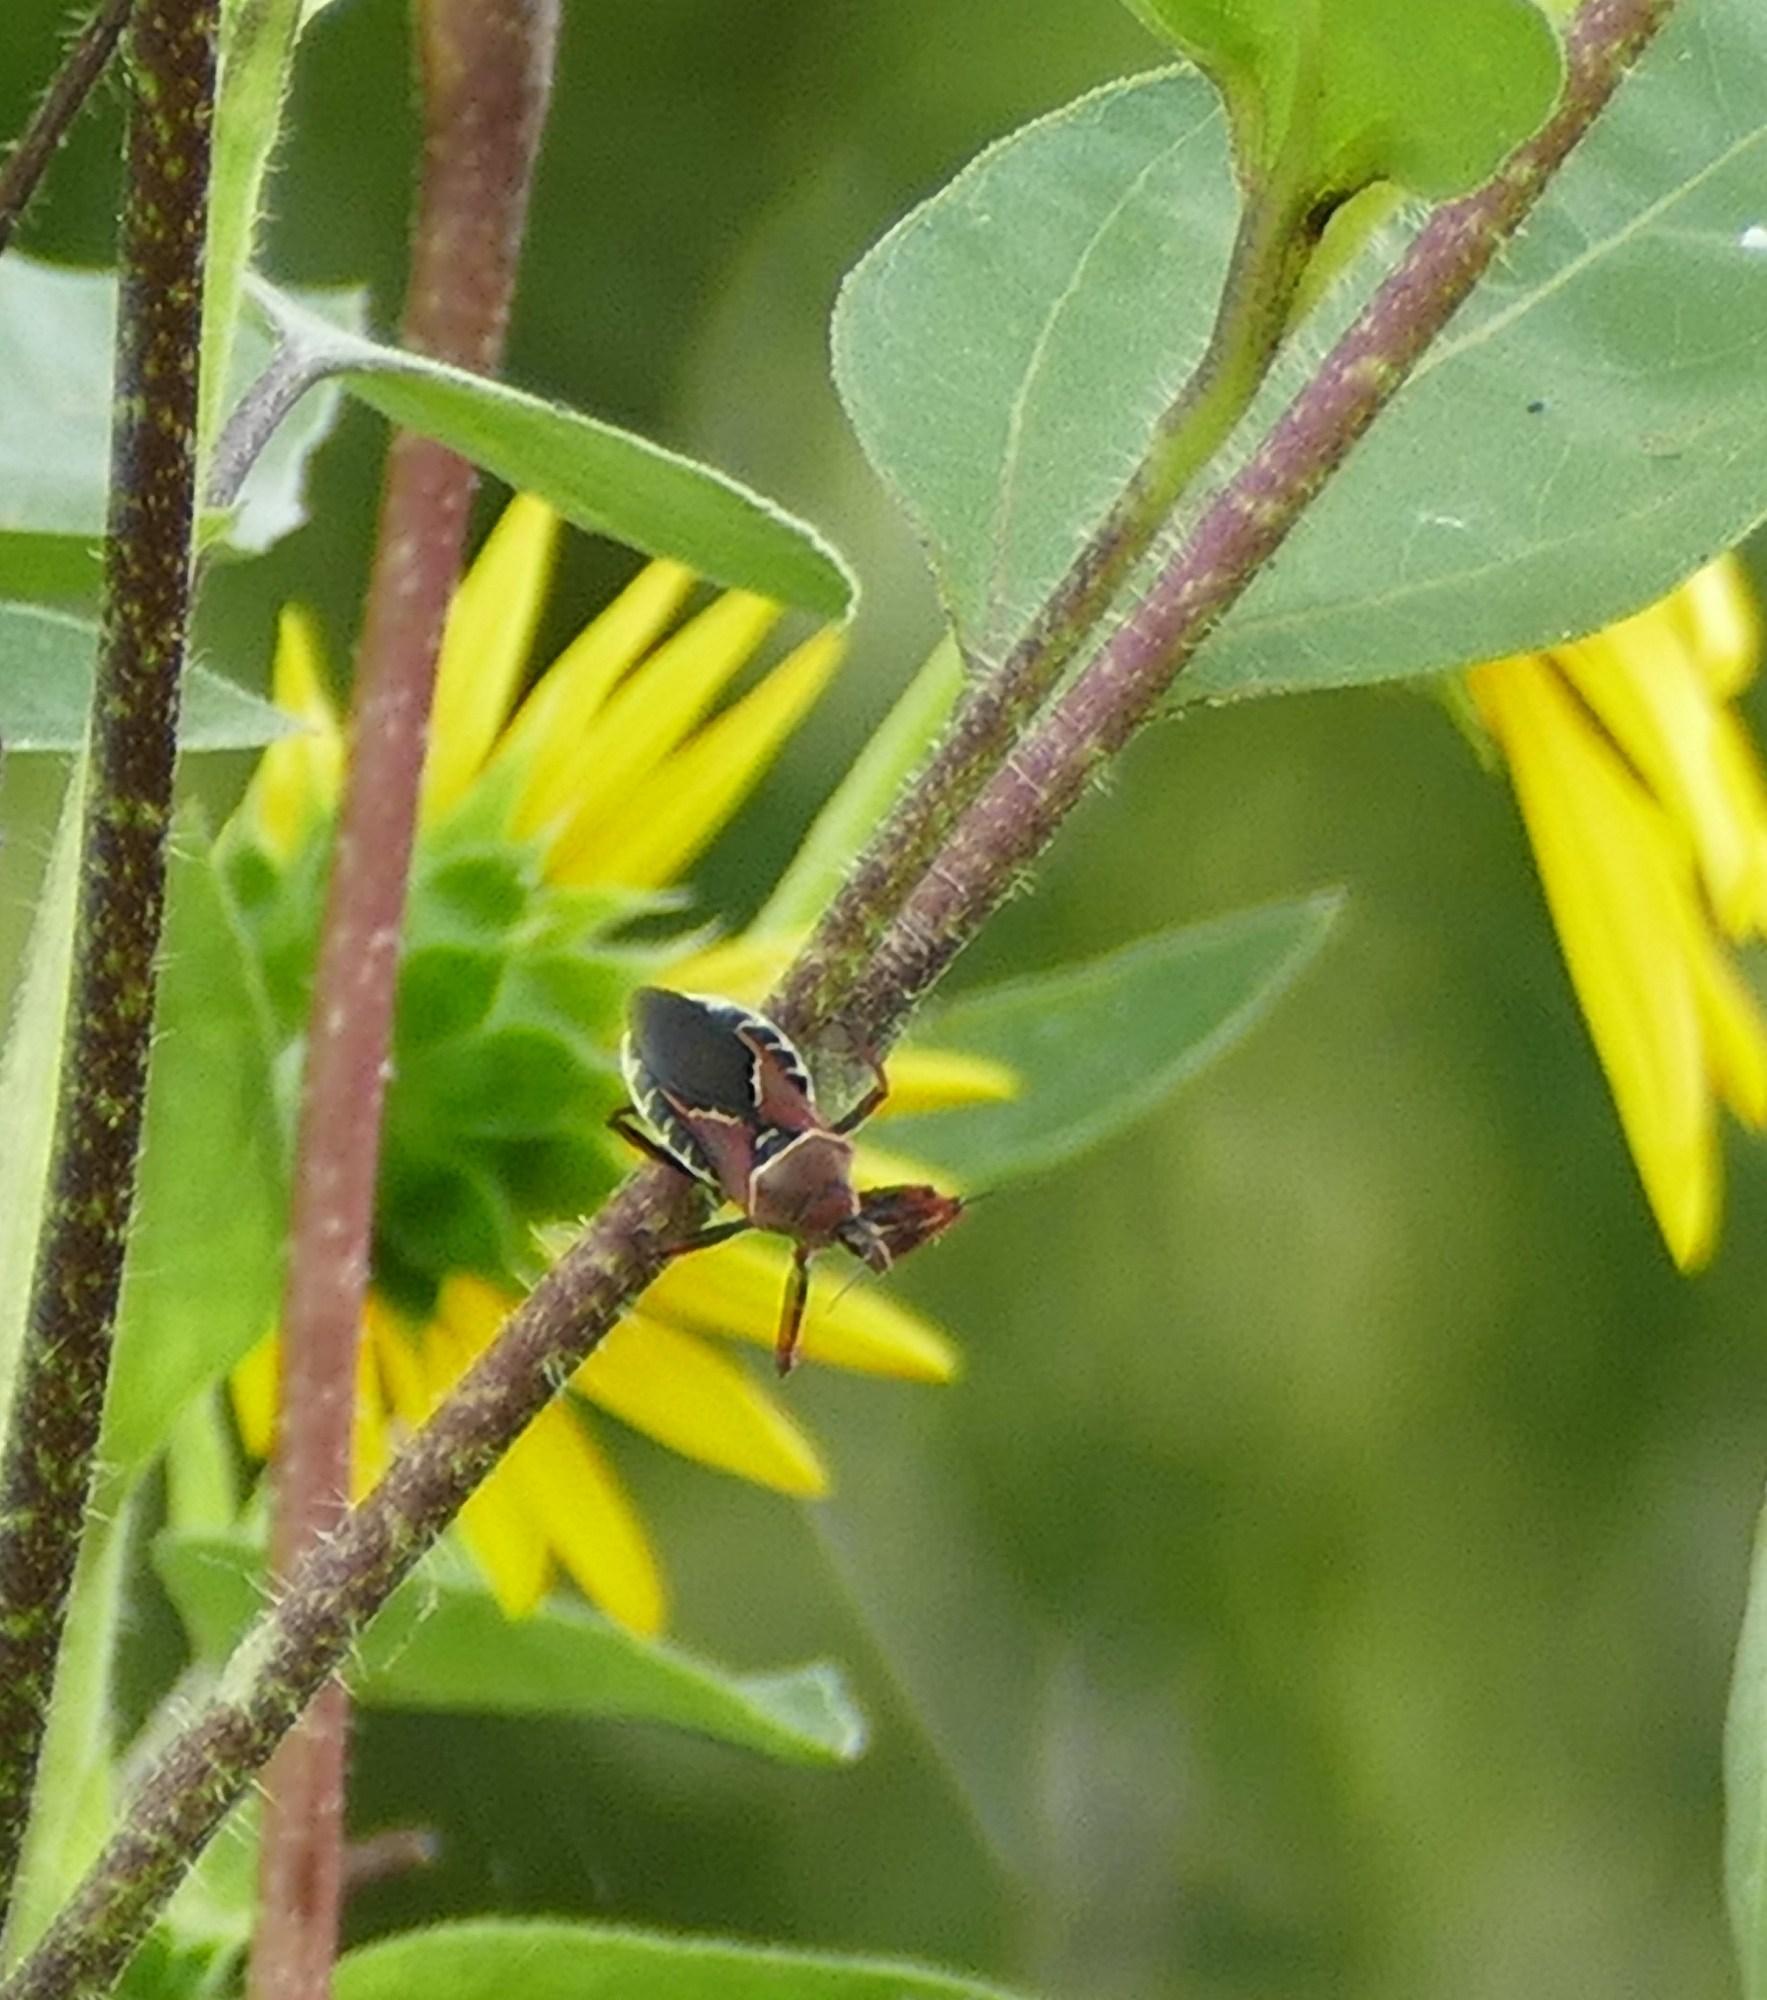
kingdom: Animalia
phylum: Arthropoda
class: Insecta
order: Hemiptera
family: Reduviidae
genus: Apiomerus
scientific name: Apiomerus spissipes
